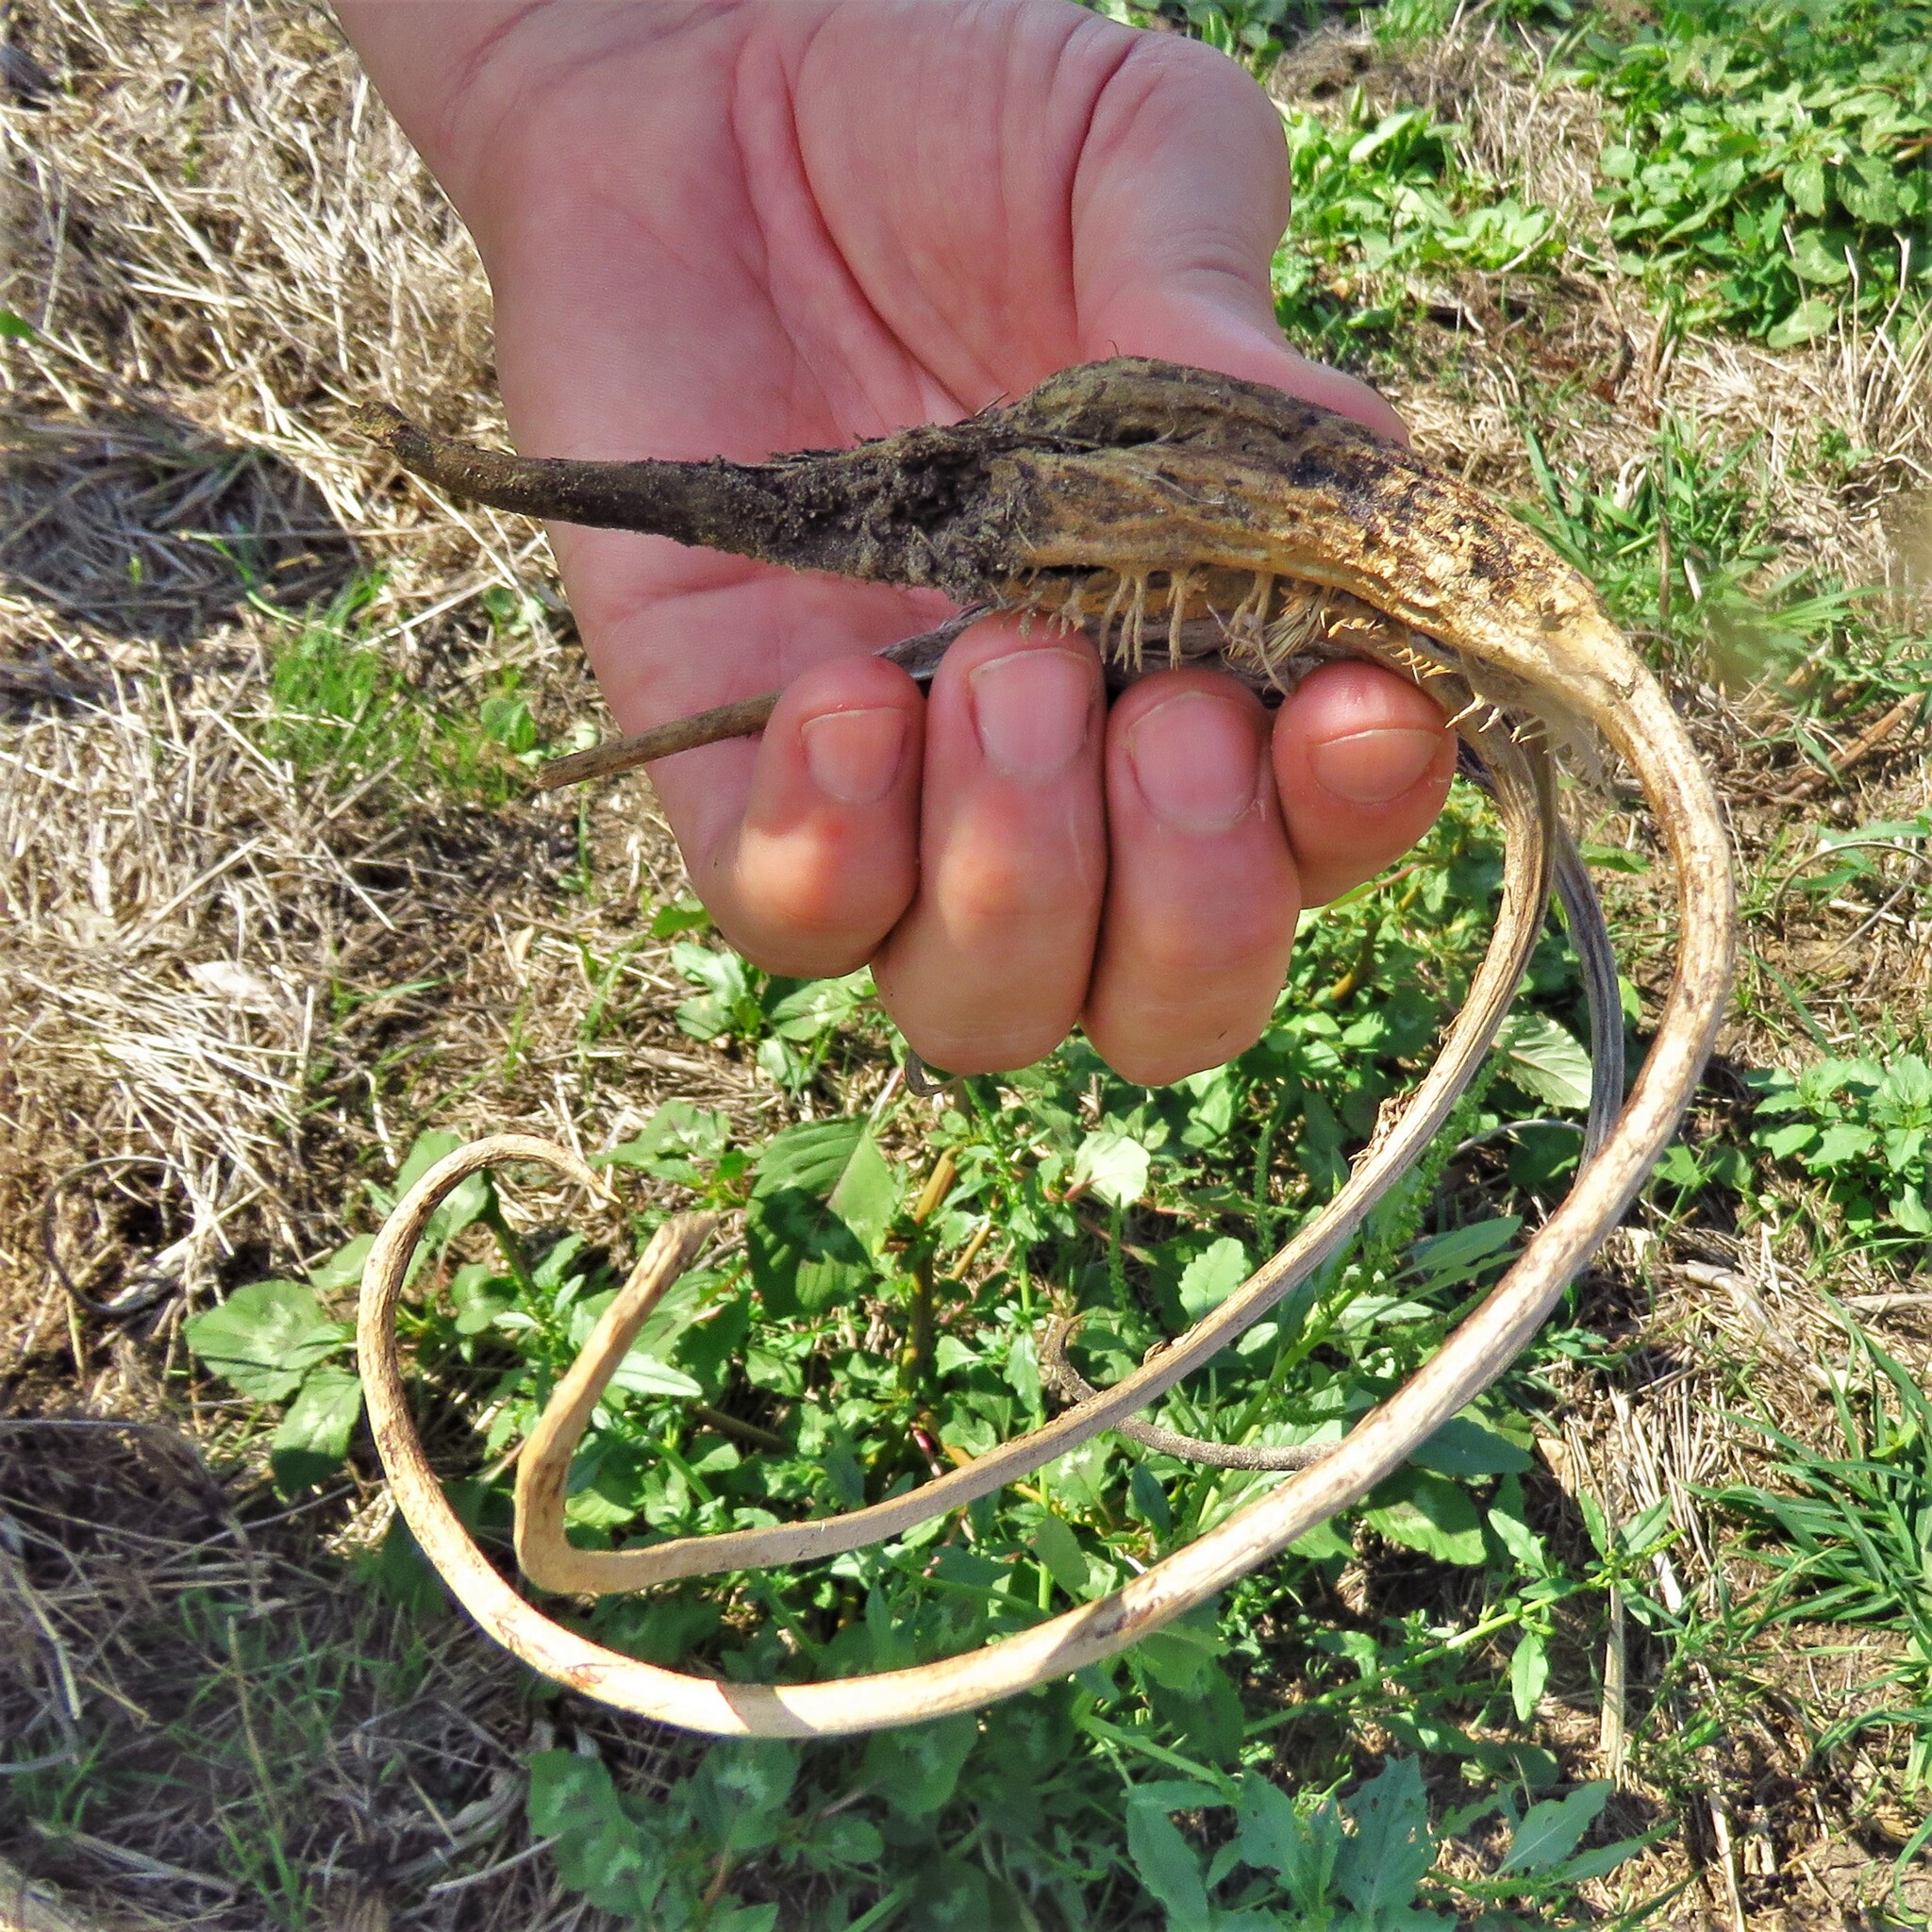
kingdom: Plantae
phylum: Tracheophyta
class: Magnoliopsida
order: Lamiales
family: Martyniaceae
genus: Proboscidea
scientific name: Proboscidea louisianica
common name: Elephant tusks
